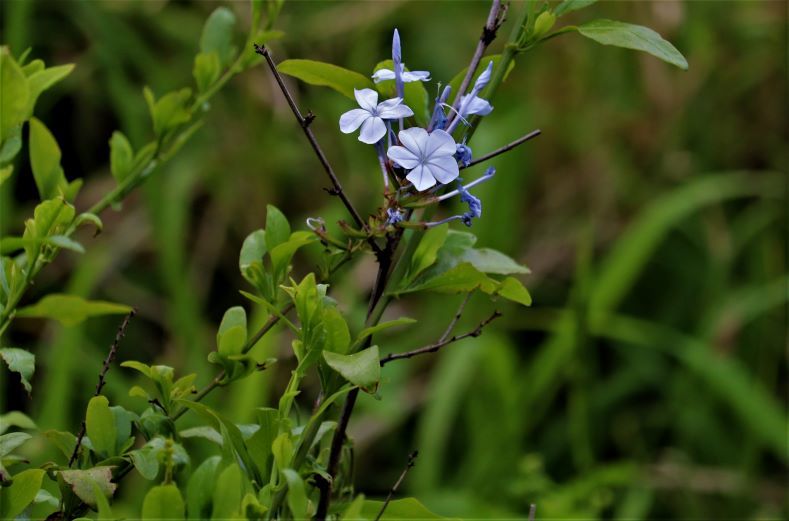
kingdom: Plantae
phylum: Tracheophyta
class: Magnoliopsida
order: Caryophyllales
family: Plumbaginaceae
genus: Plumbago
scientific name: Plumbago auriculata
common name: Cape leadwort
